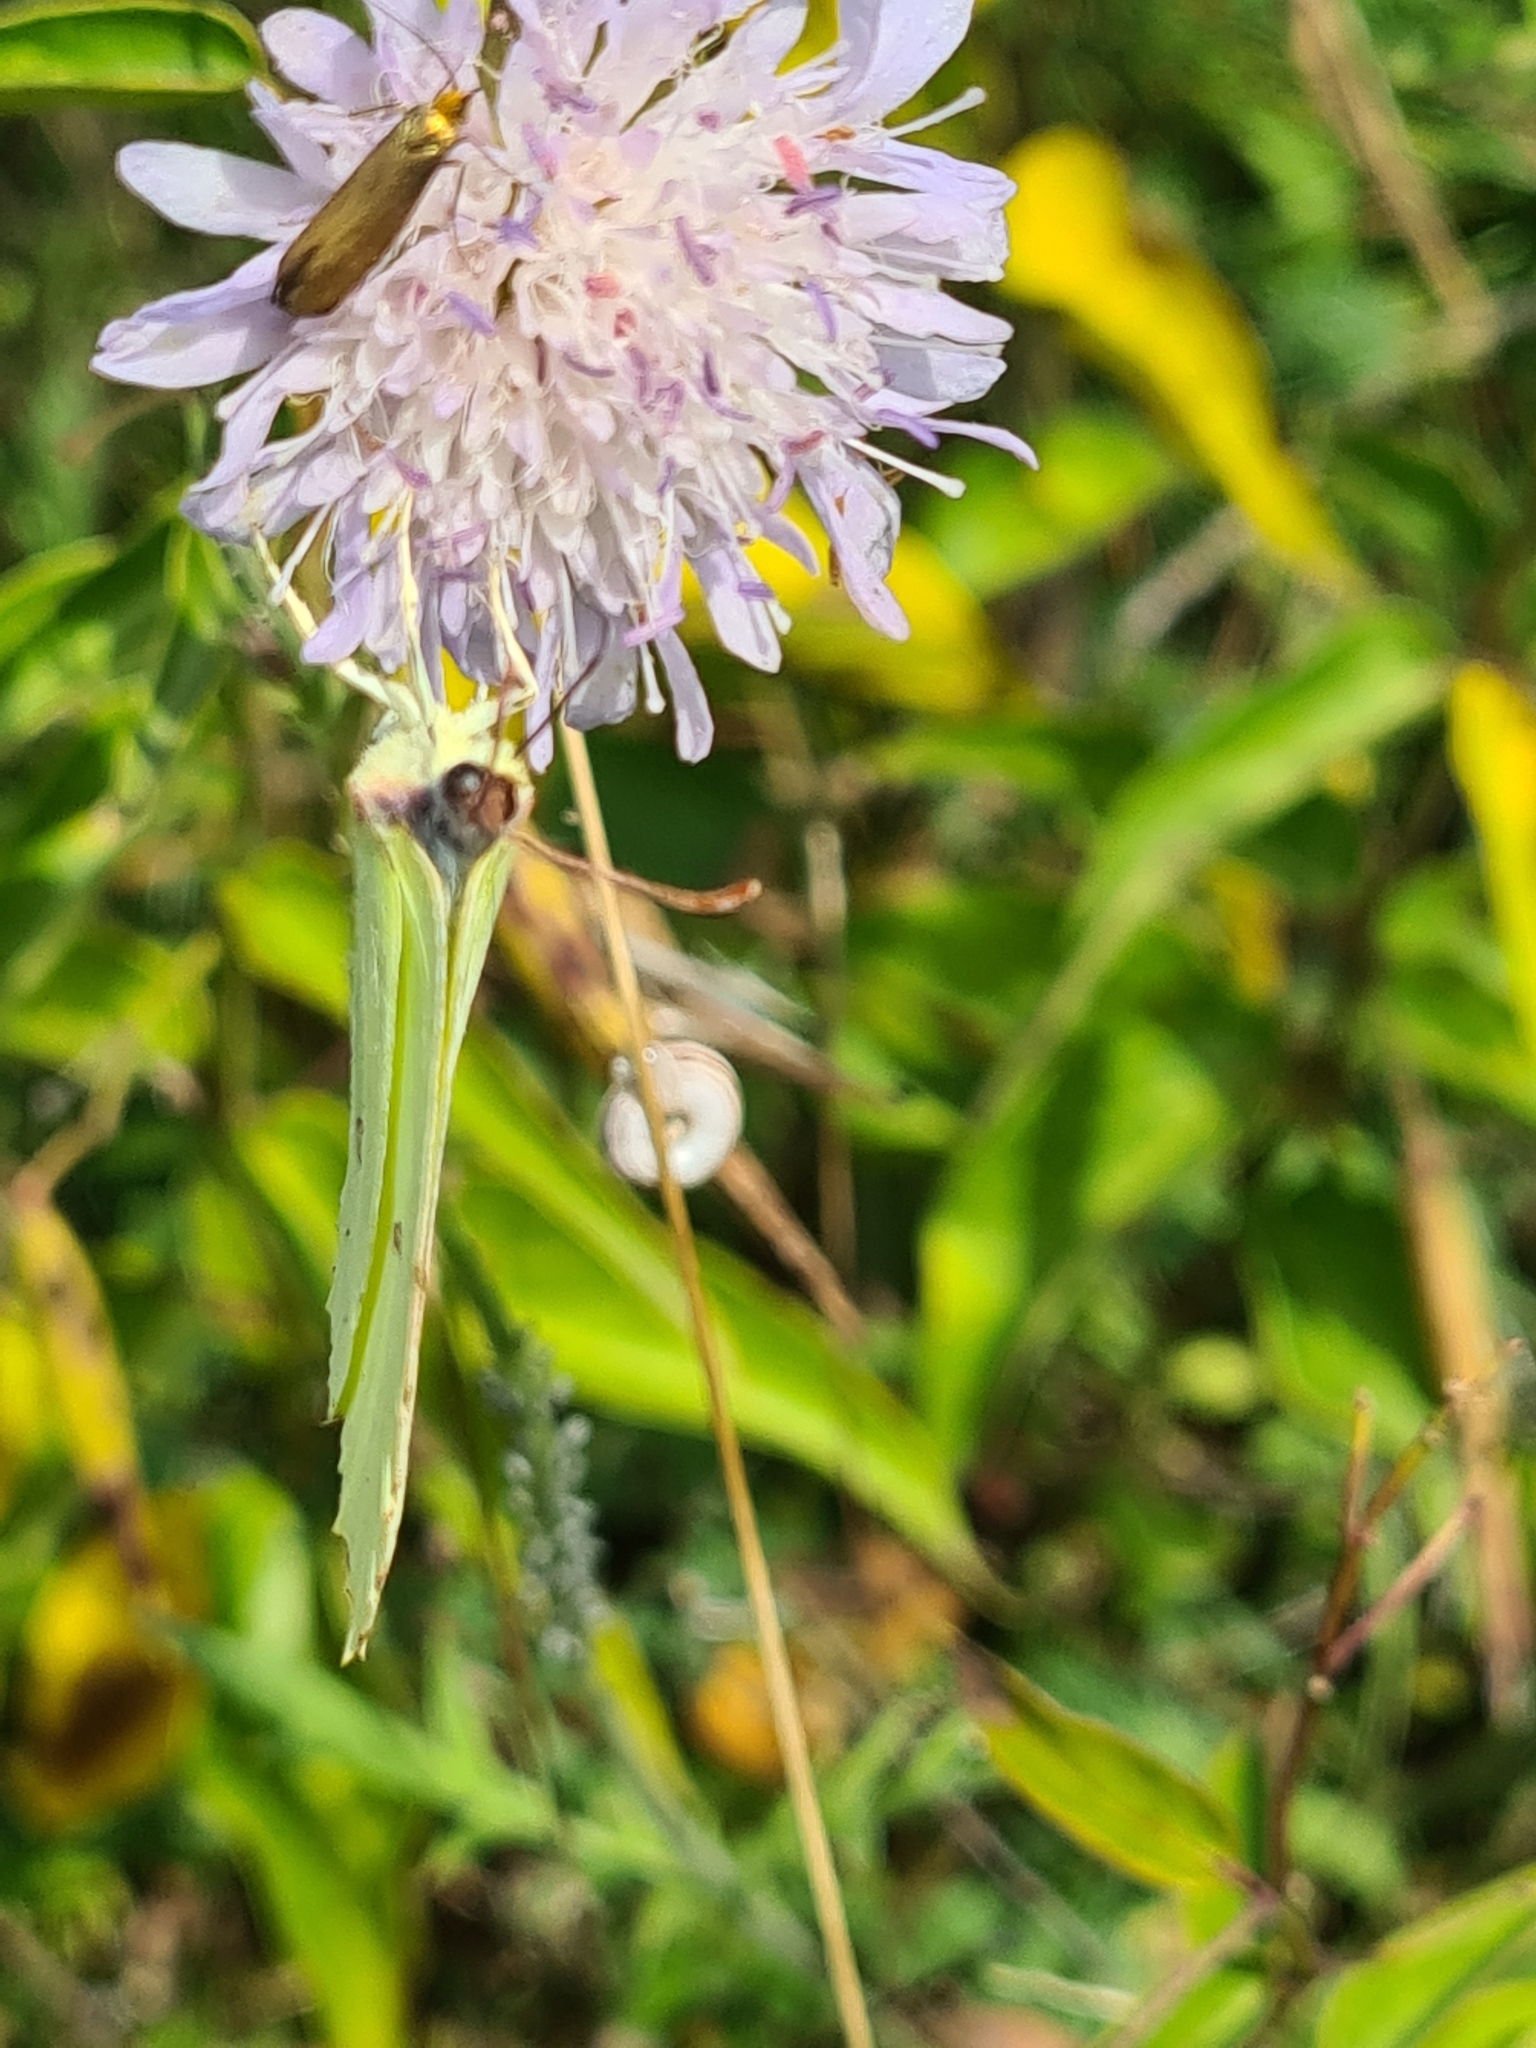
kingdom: Animalia
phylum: Arthropoda
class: Insecta
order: Lepidoptera
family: Pieridae
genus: Gonepteryx
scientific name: Gonepteryx rhamni
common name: Brimstone
